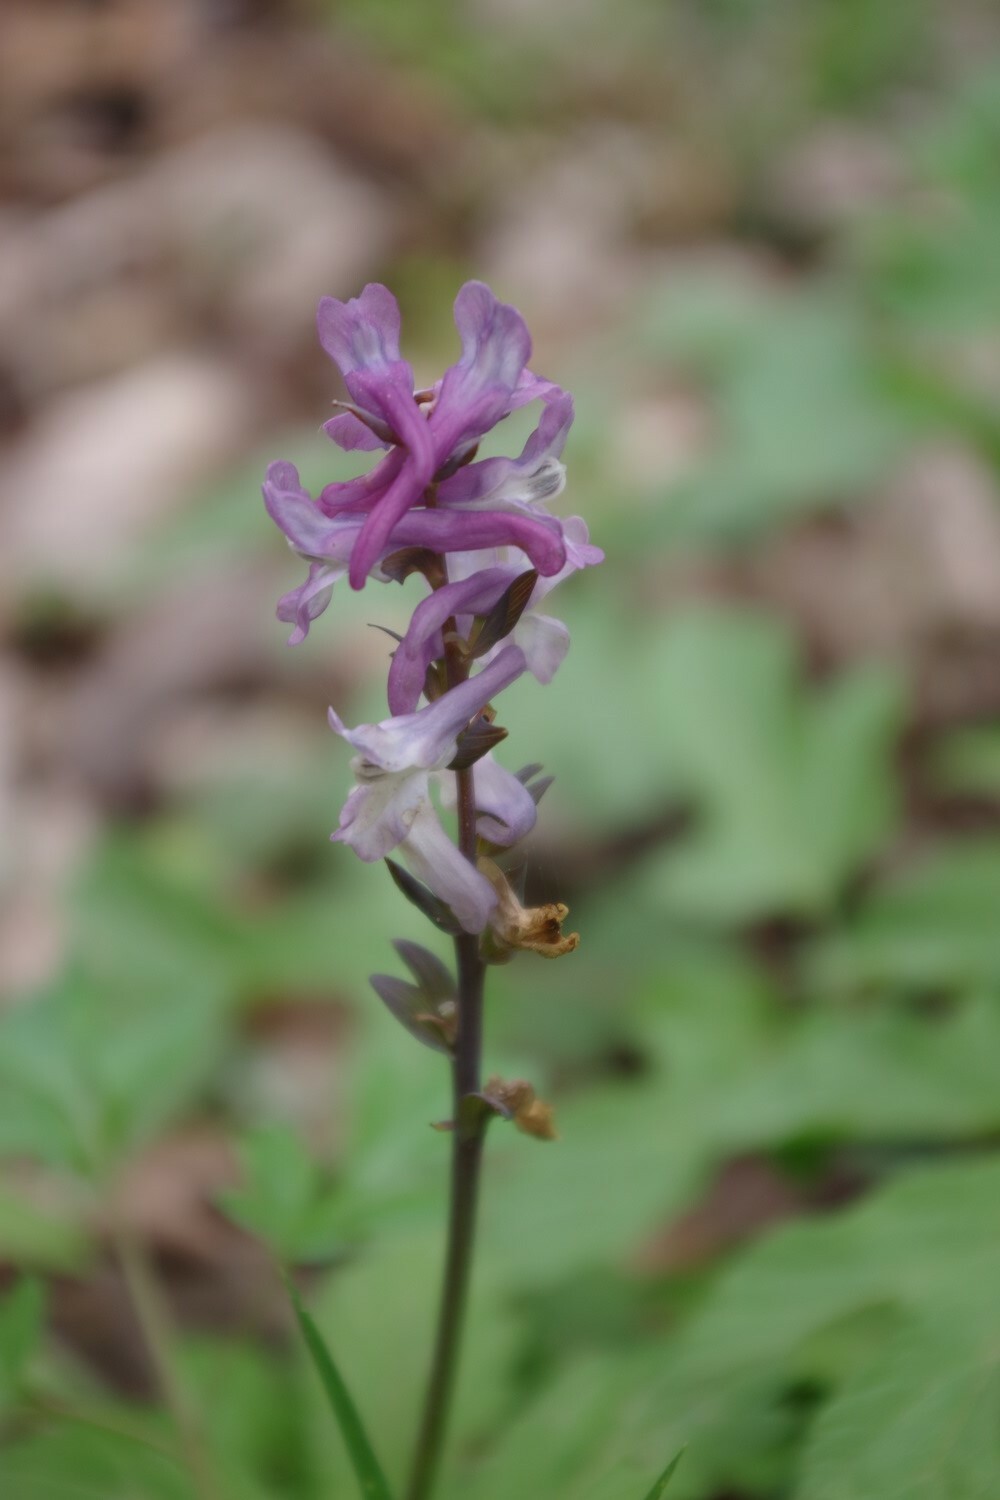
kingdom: Plantae
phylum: Tracheophyta
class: Magnoliopsida
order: Ranunculales
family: Papaveraceae
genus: Corydalis
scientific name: Corydalis cava
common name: Hollowroot
